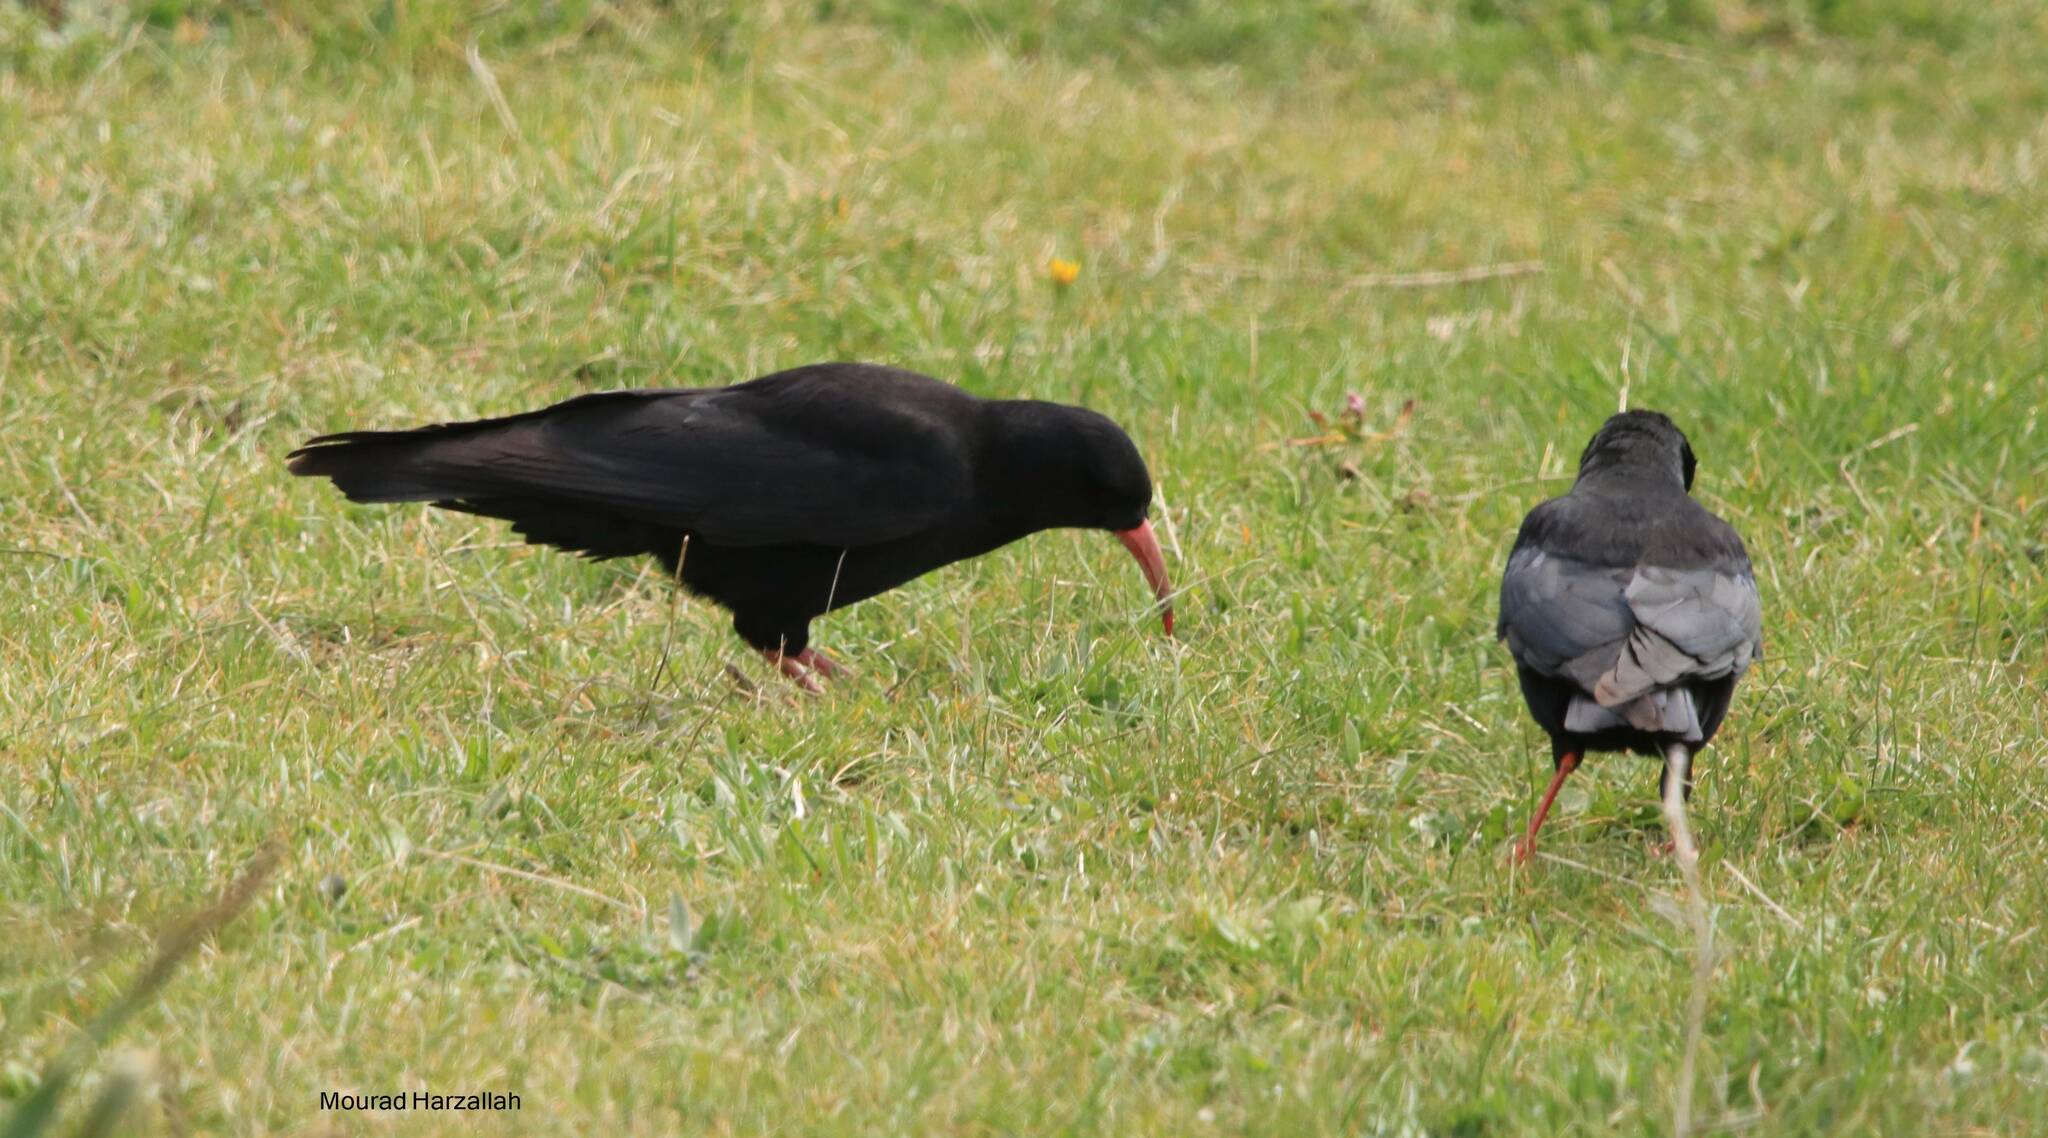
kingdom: Animalia
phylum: Chordata
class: Aves
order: Passeriformes
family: Corvidae
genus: Pyrrhocorax
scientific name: Pyrrhocorax pyrrhocorax
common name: Red-billed chough
